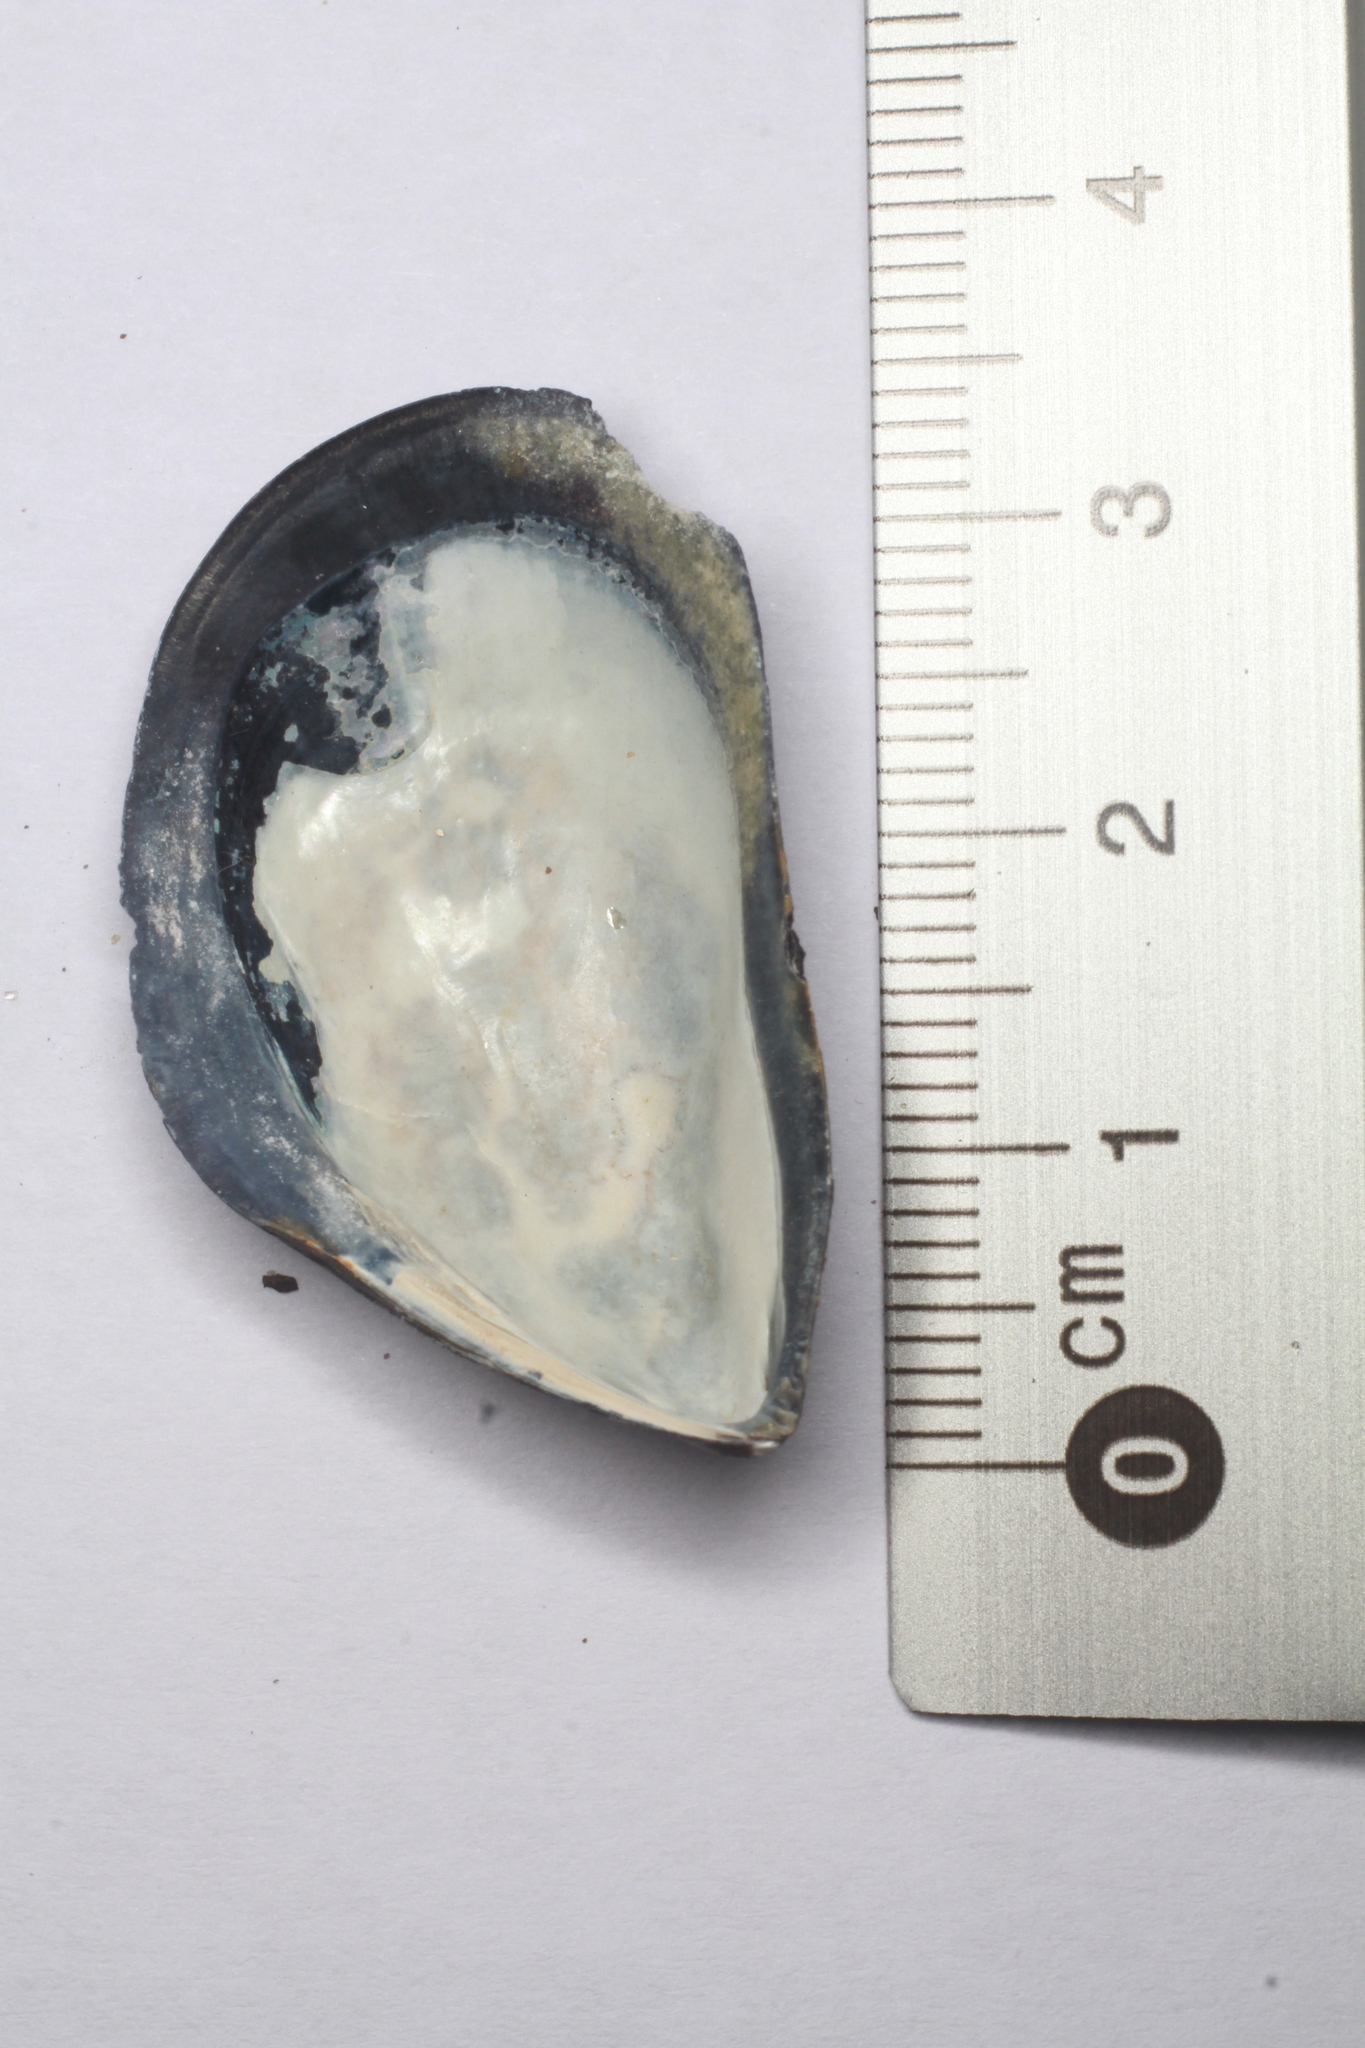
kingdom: Animalia
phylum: Mollusca
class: Bivalvia
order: Mytilida
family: Mytilidae
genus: Mytilus
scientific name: Mytilus edulis
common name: Blue mussel
